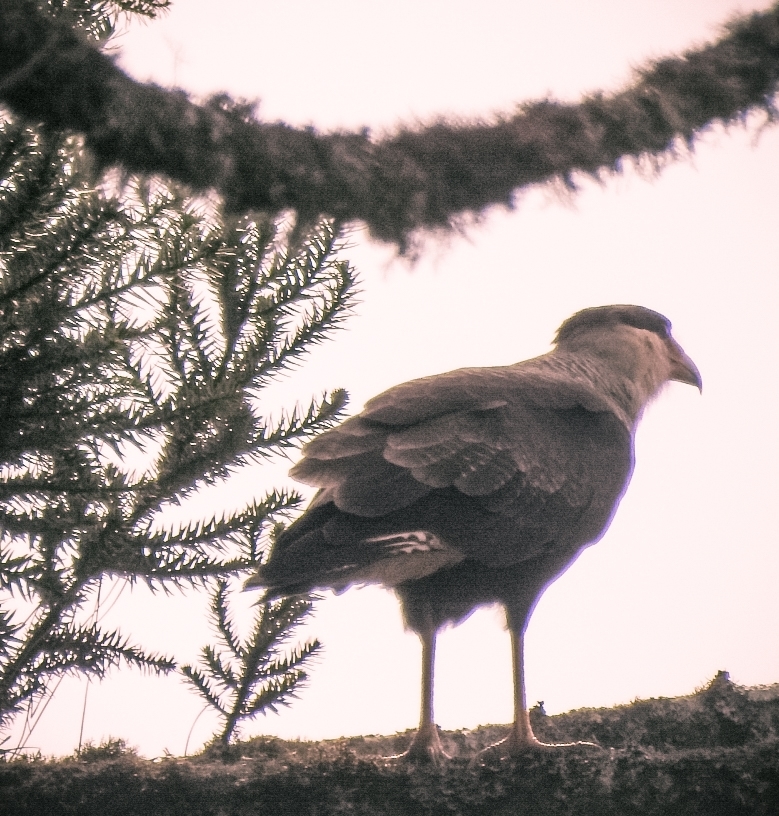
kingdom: Animalia
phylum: Chordata
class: Aves
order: Falconiformes
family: Falconidae
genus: Caracara
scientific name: Caracara plancus
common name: Southern caracara
